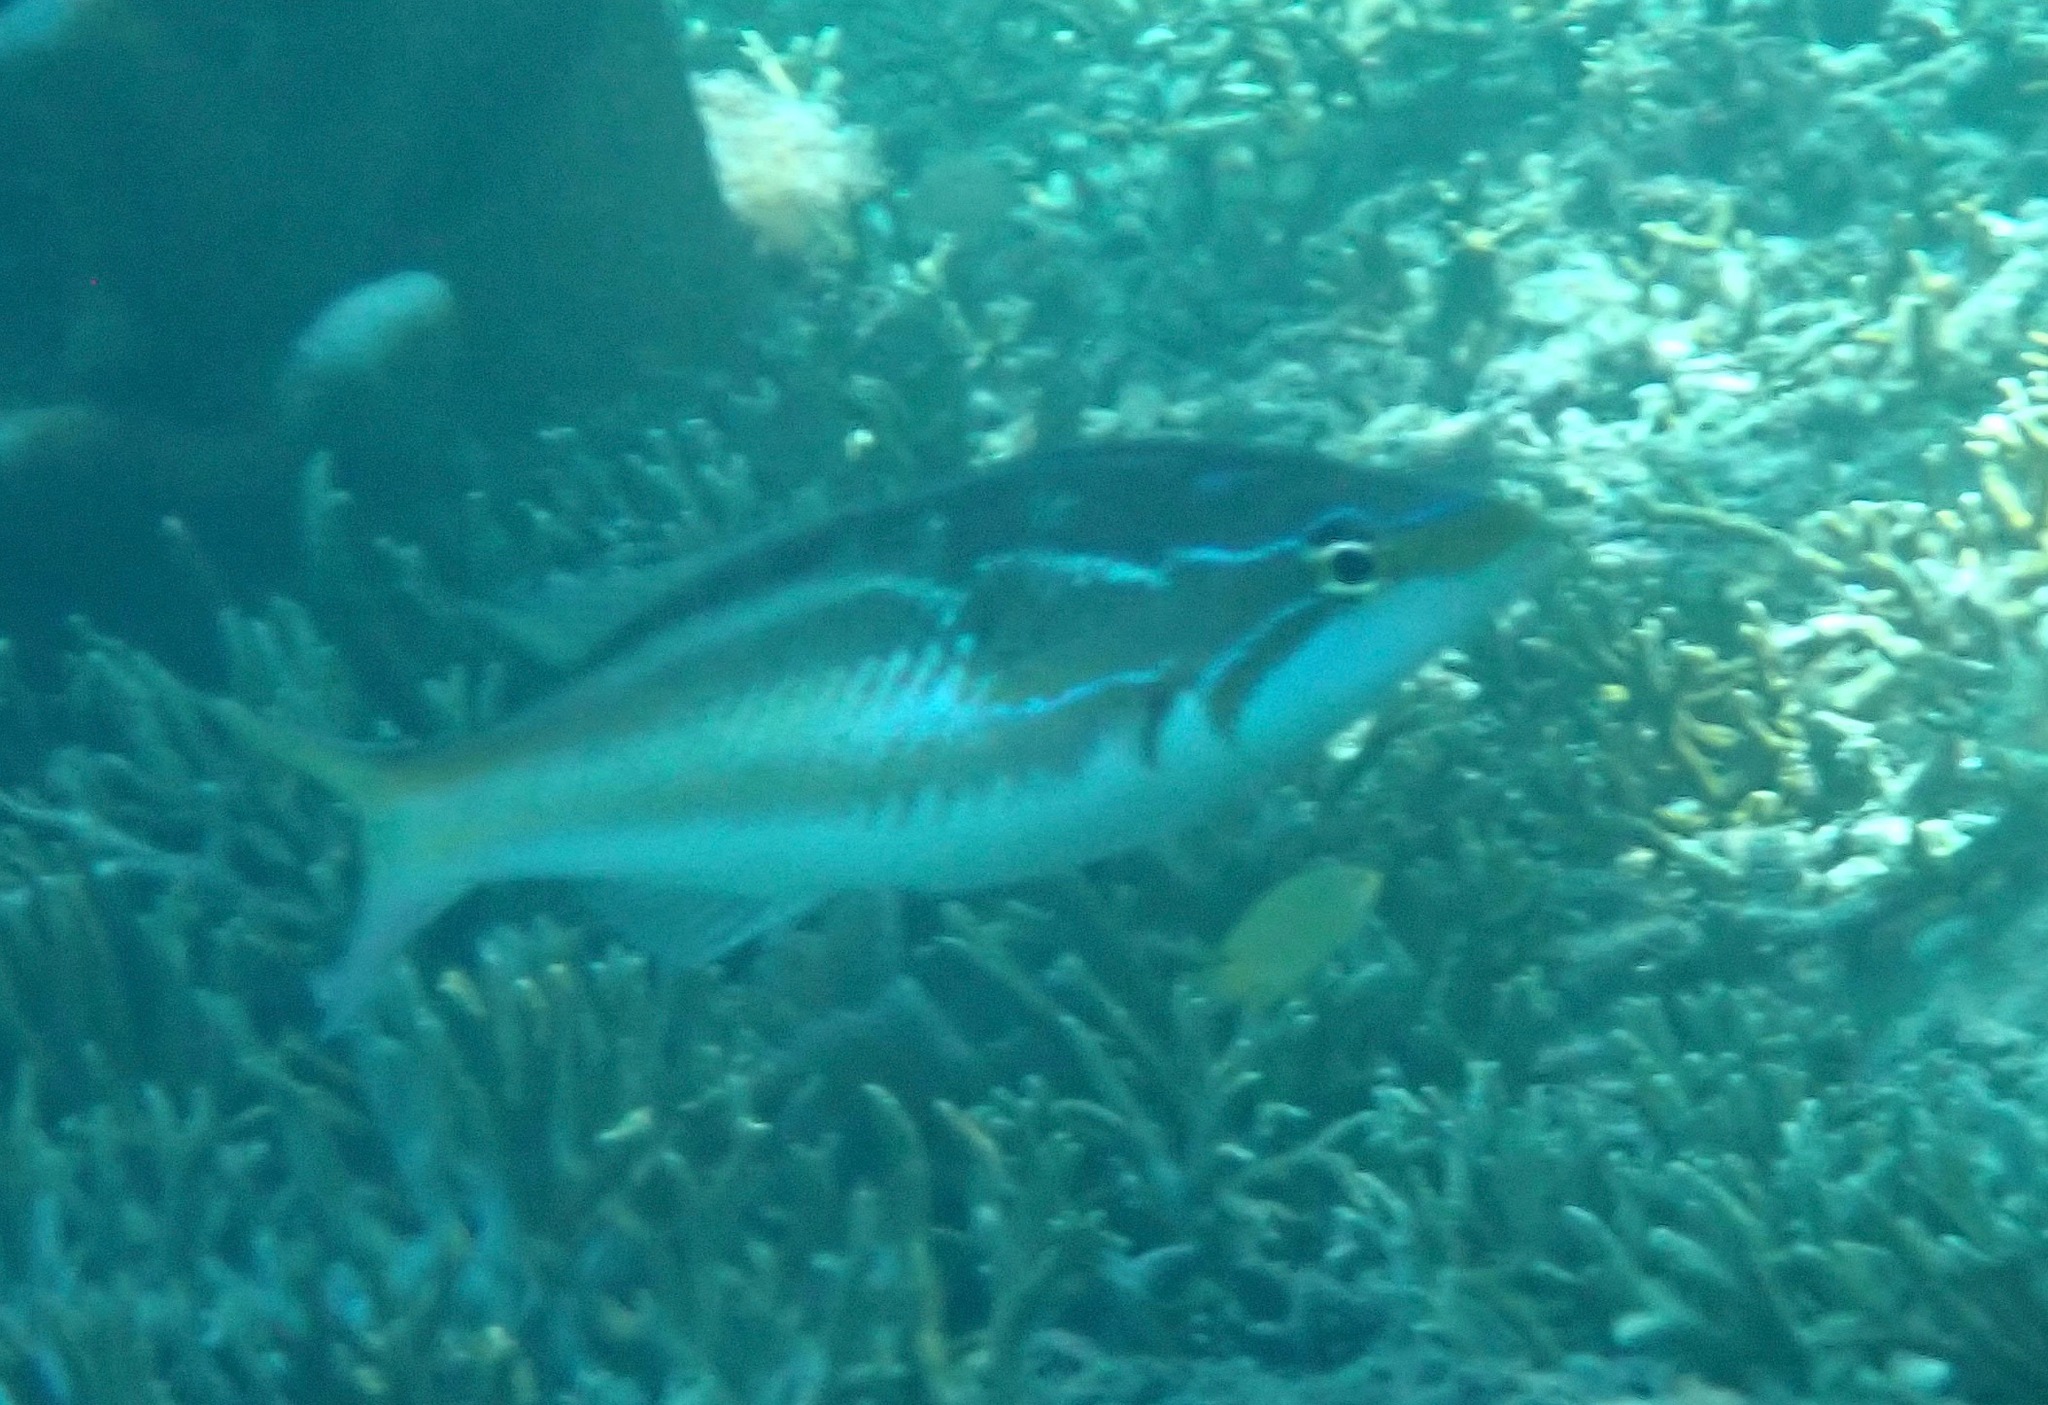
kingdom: Animalia
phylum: Chordata
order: Perciformes
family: Nemipteridae
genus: Pentapodus
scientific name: Pentapodus trivittatus
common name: Three-striped whiptail
